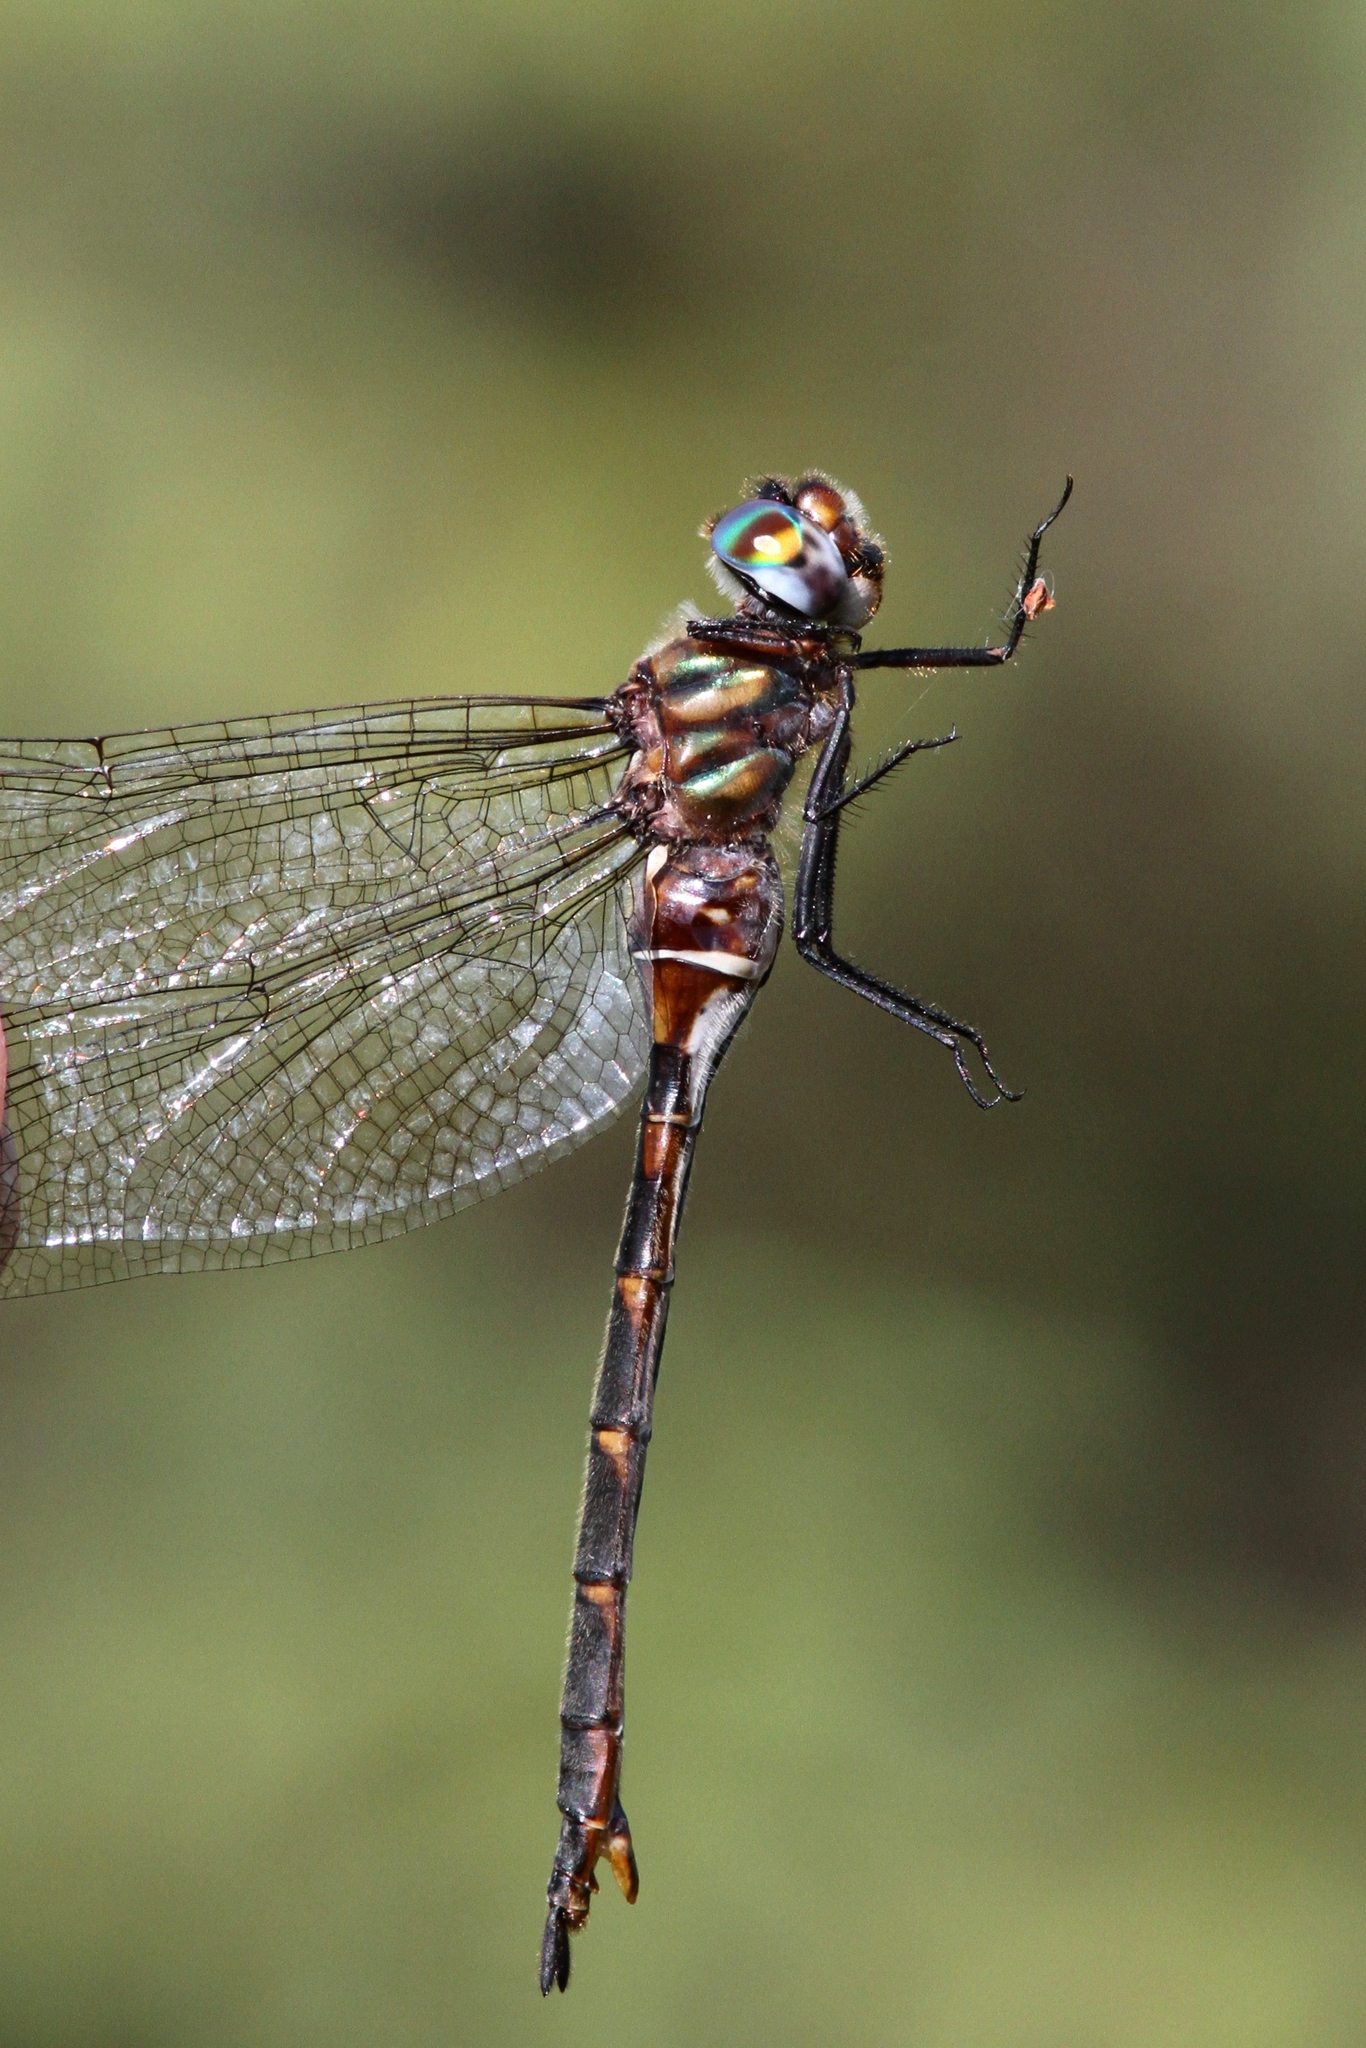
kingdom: Animalia
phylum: Arthropoda
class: Insecta
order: Odonata
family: Corduliidae
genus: Somatochlora
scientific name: Somatochlora incurvata
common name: Incurvate emerald
